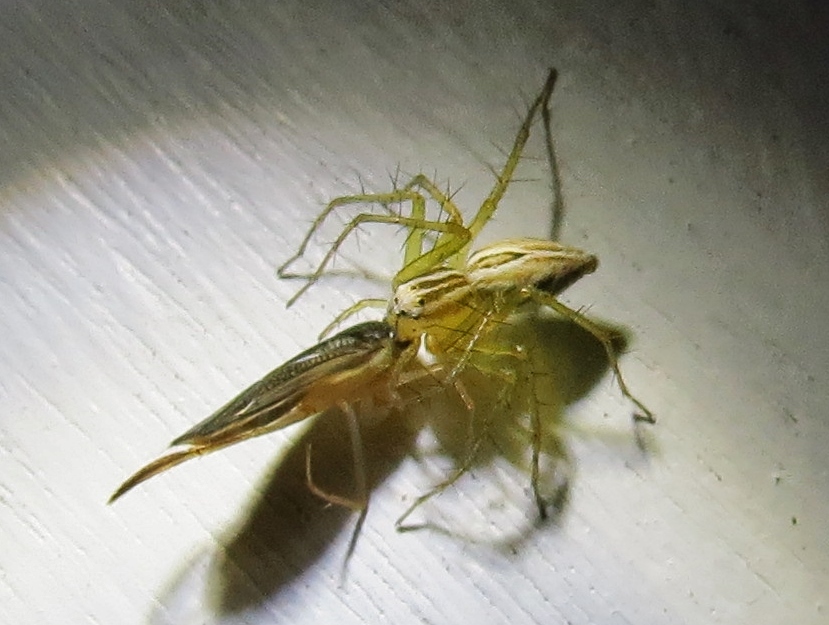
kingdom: Animalia
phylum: Arthropoda
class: Arachnida
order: Araneae
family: Oxyopidae
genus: Oxyopes
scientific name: Oxyopes salticus
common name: Lynx spiders
